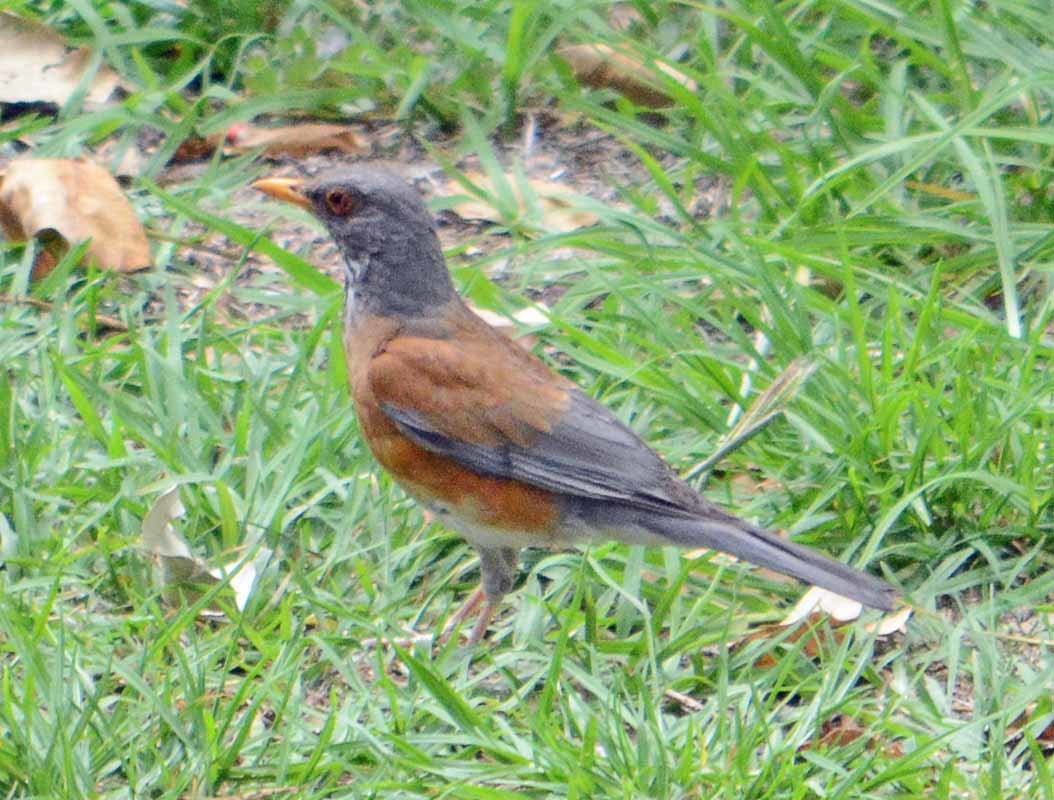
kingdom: Animalia
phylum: Chordata
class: Aves
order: Passeriformes
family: Turdidae
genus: Turdus
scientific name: Turdus rufopalliatus
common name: Rufous-backed robin
